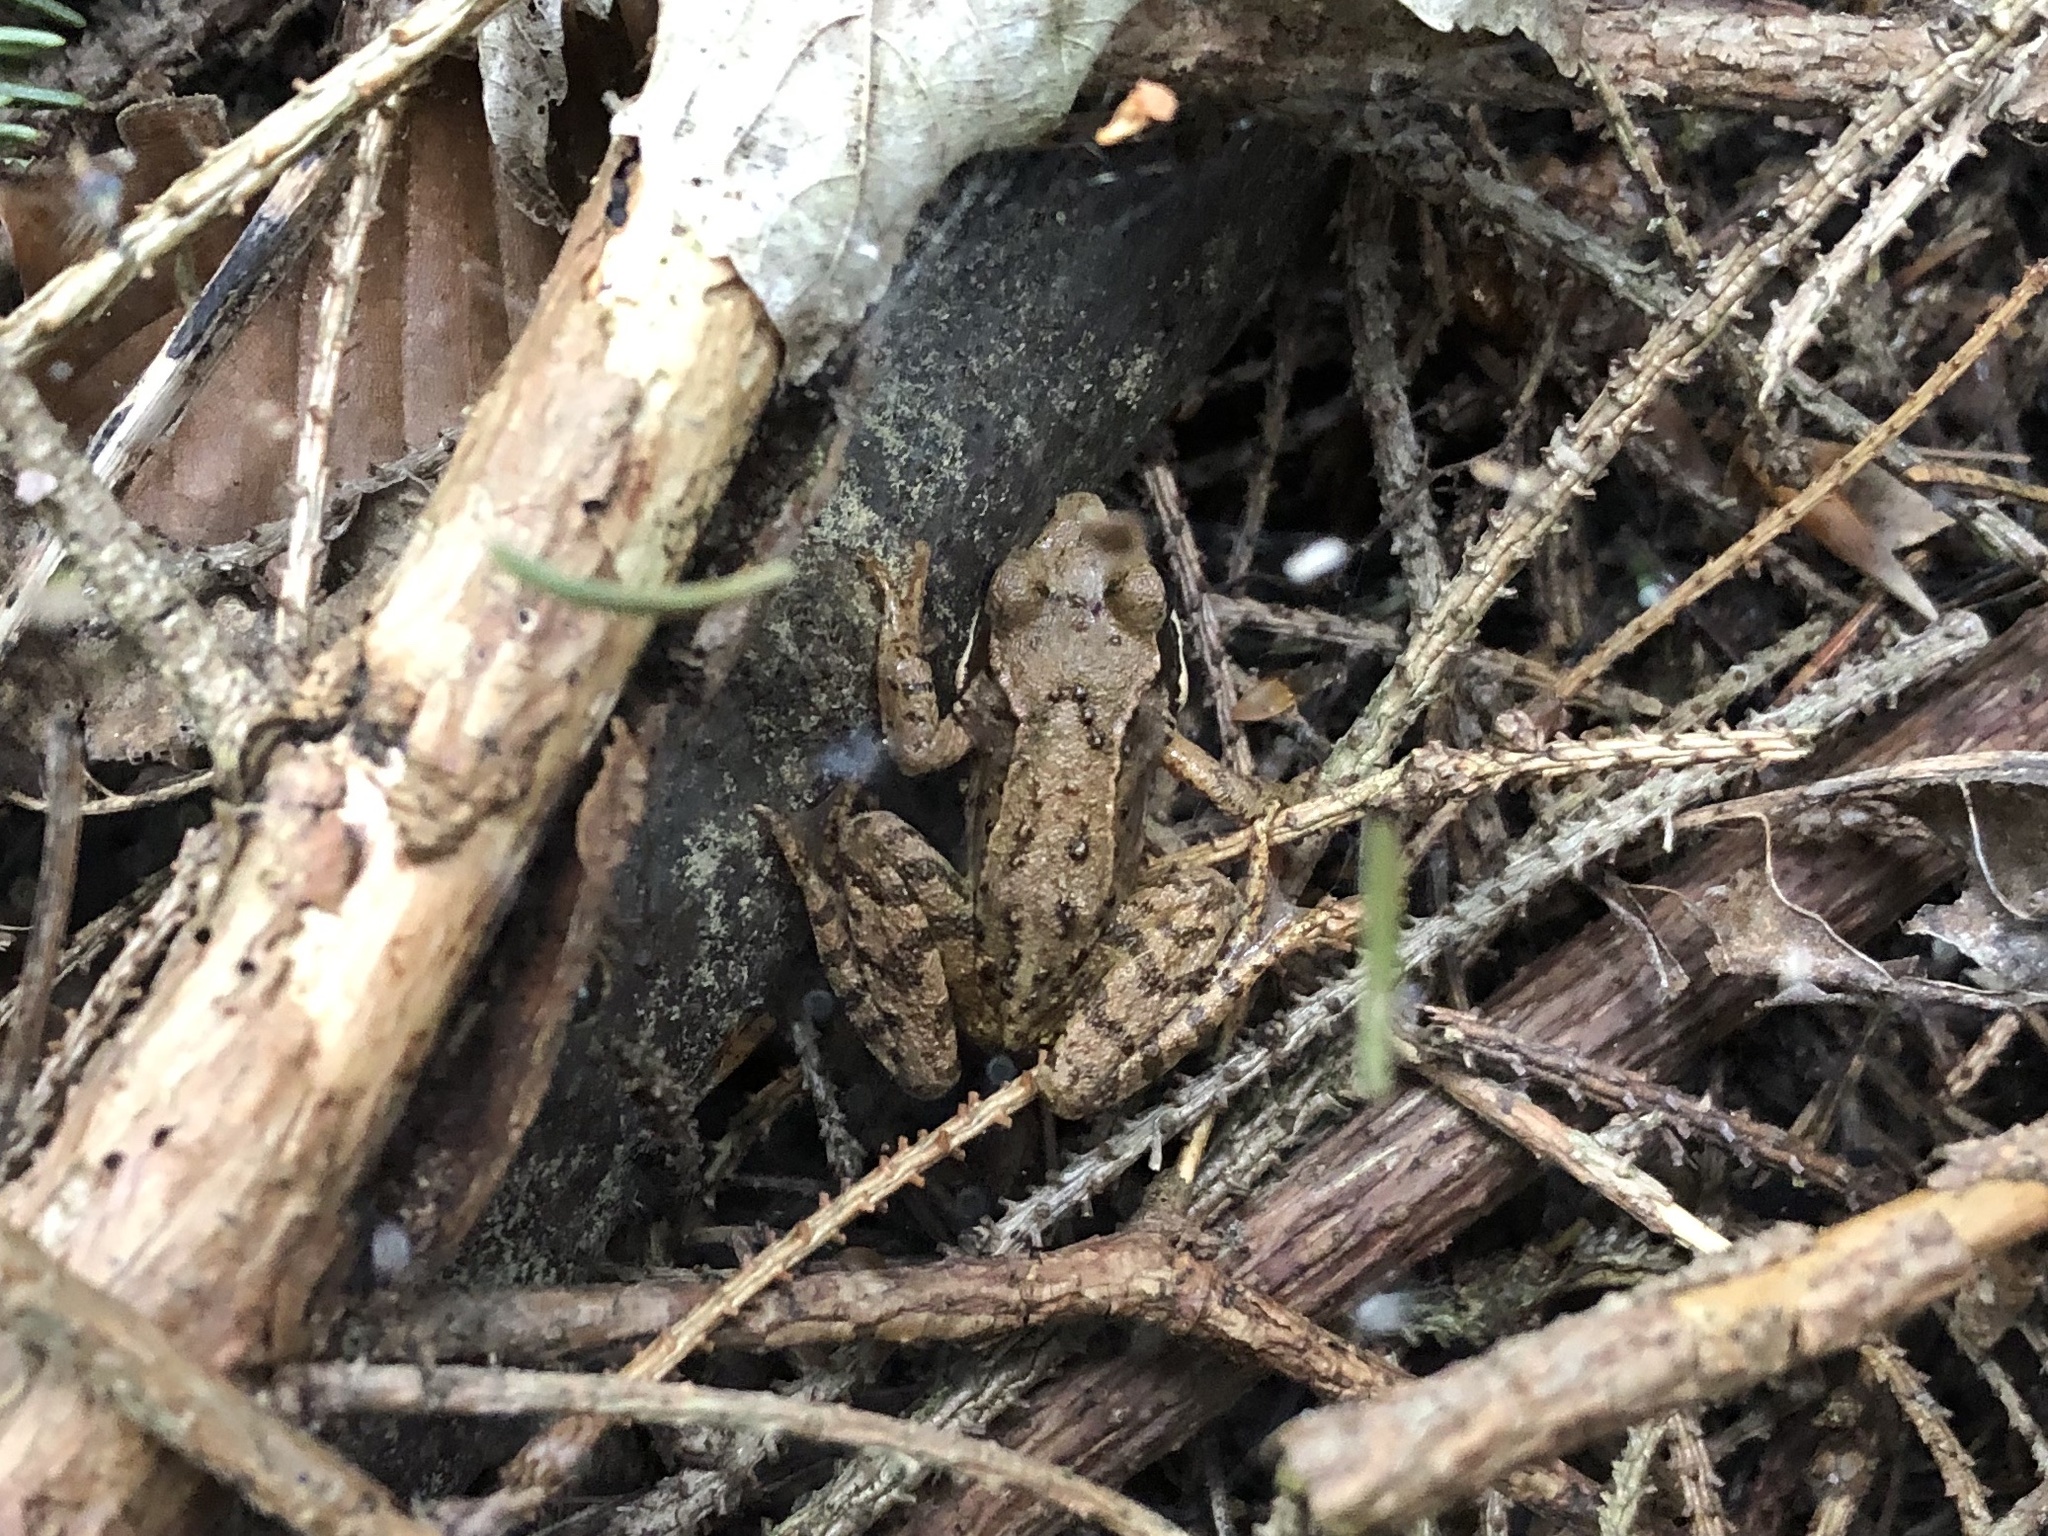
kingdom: Animalia
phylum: Chordata
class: Amphibia
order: Anura
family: Ranidae
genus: Rana
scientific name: Rana temporaria
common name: Common frog
